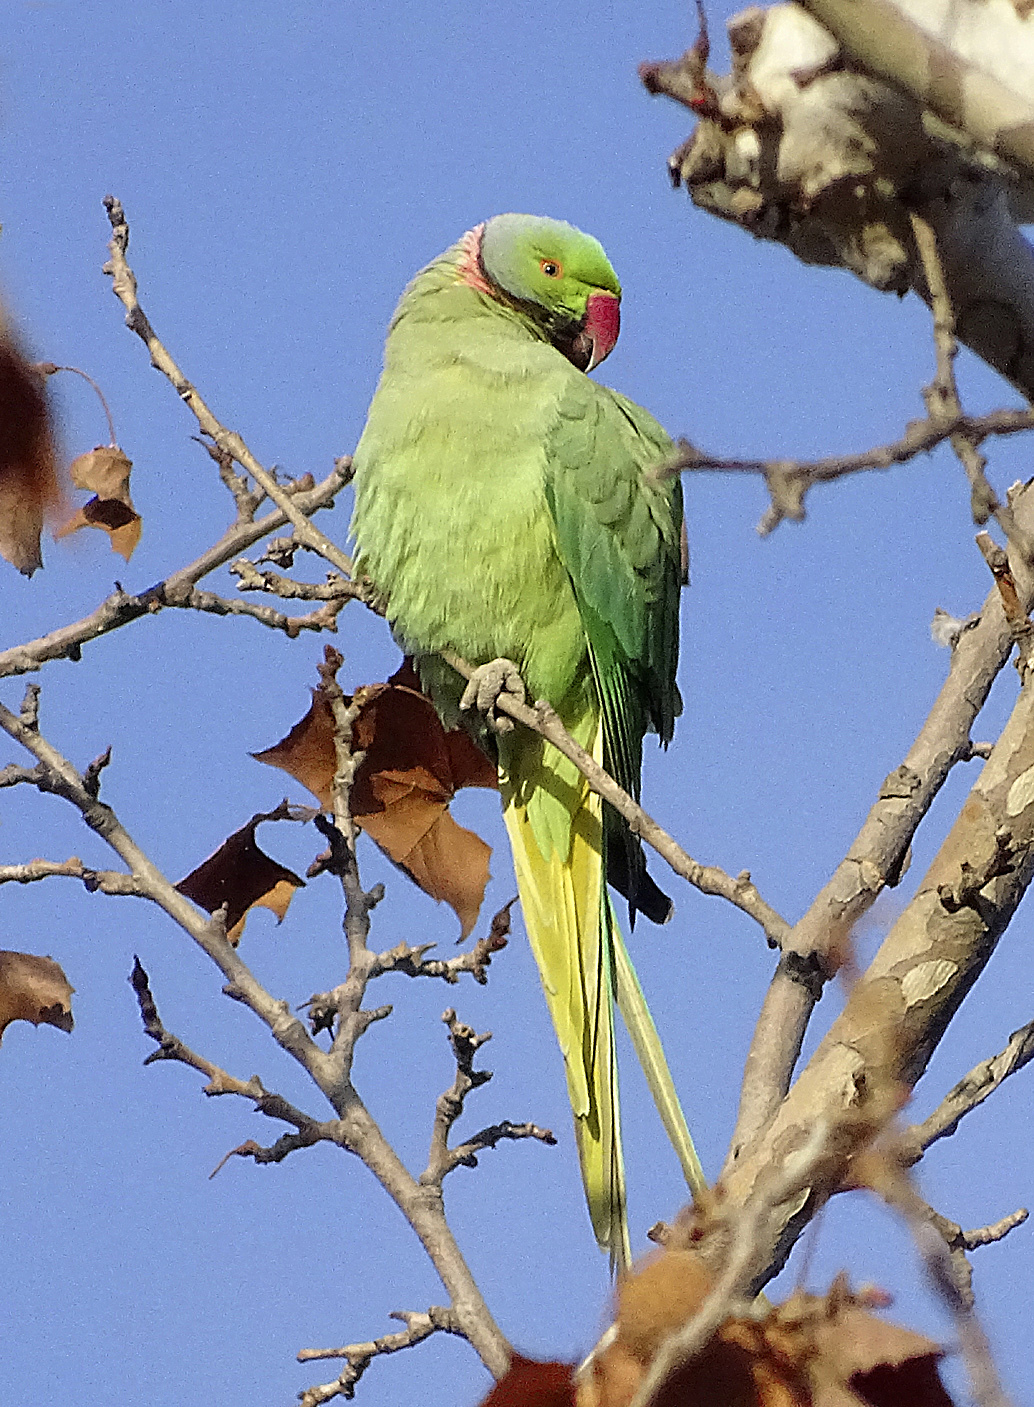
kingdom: Animalia
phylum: Chordata
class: Aves
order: Psittaciformes
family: Psittacidae
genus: Psittacula
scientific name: Psittacula krameri
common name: Rose-ringed parakeet
